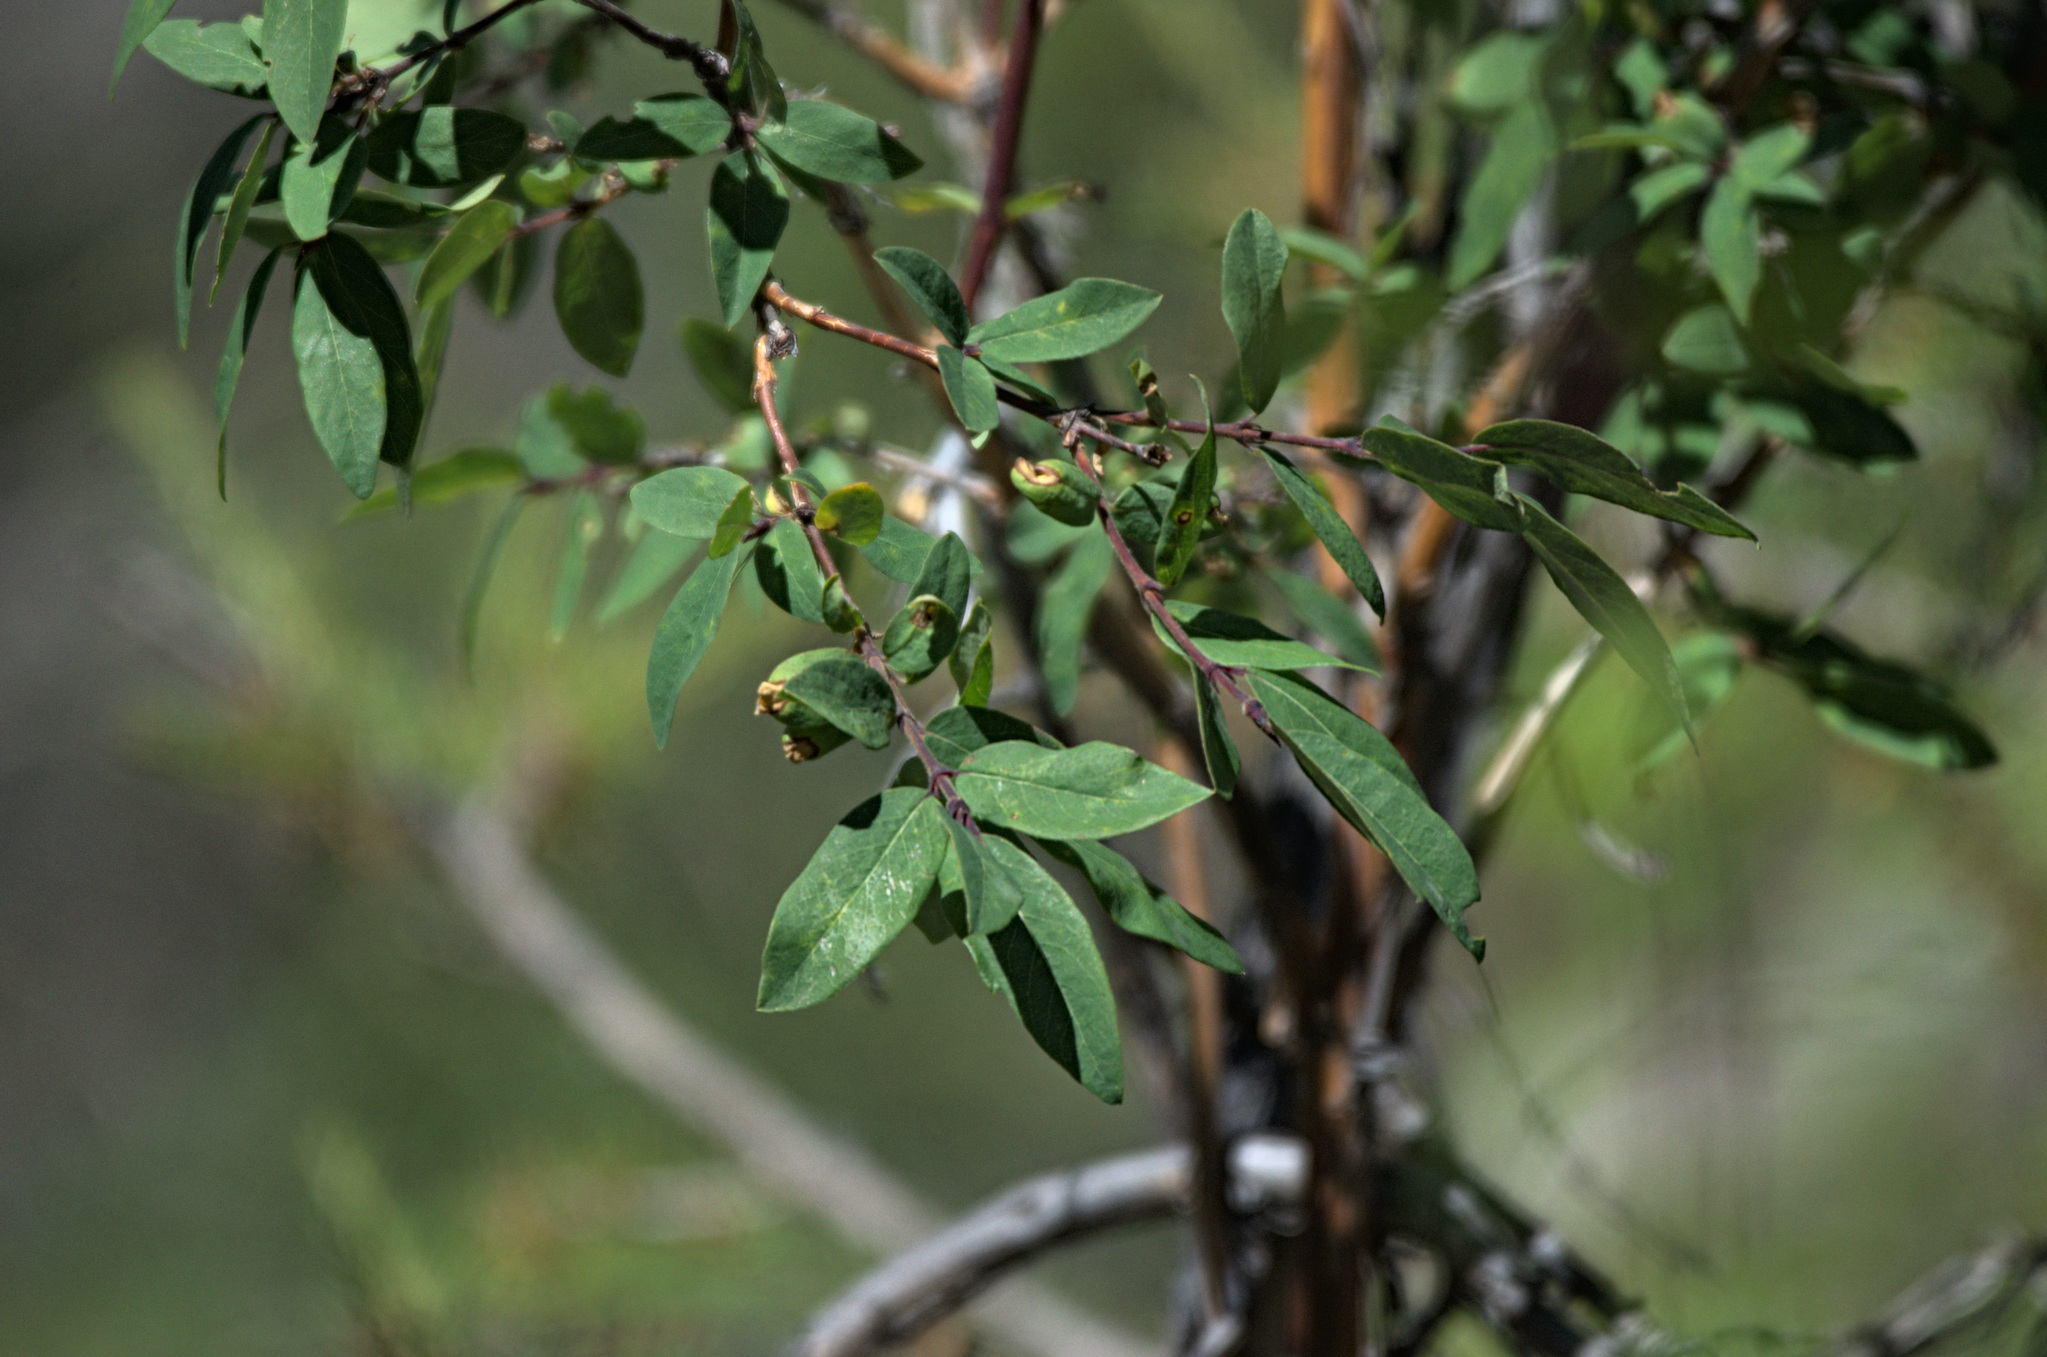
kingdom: Plantae
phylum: Tracheophyta
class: Magnoliopsida
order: Dipsacales
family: Caprifoliaceae
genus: Lonicera
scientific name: Lonicera caerulea
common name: Blue honeysuckle
